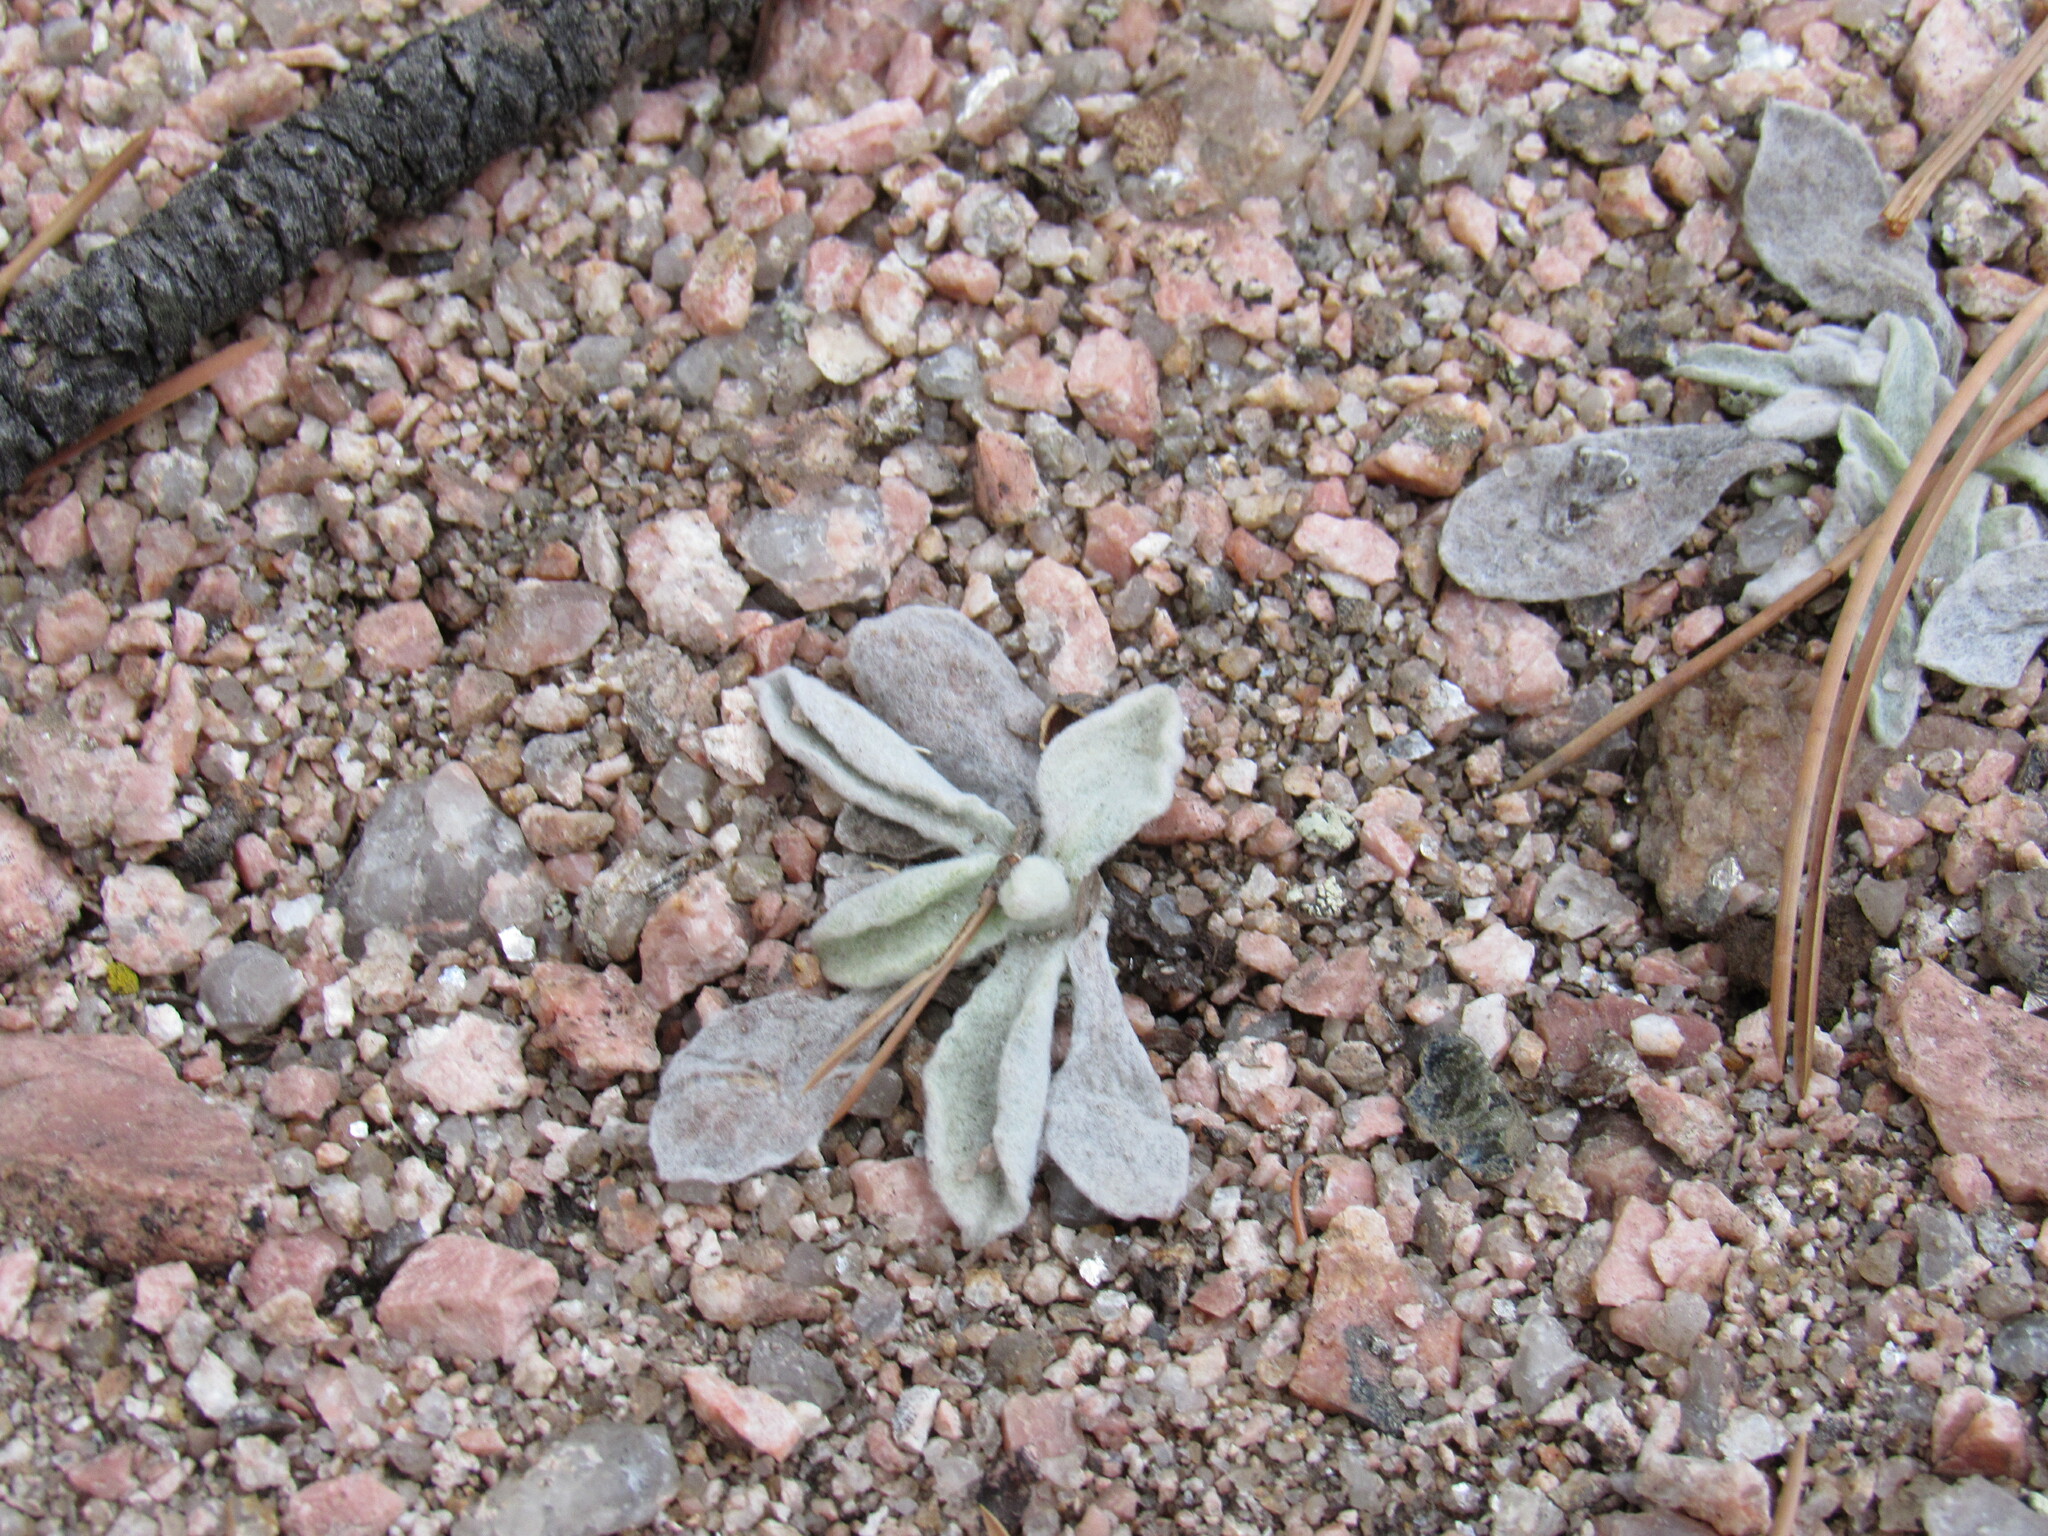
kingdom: Plantae
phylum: Tracheophyta
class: Magnoliopsida
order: Asterales
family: Asteraceae
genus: Pseudognaphalium
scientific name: Pseudognaphalium canescens
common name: Wright's rabbit-tobacco
